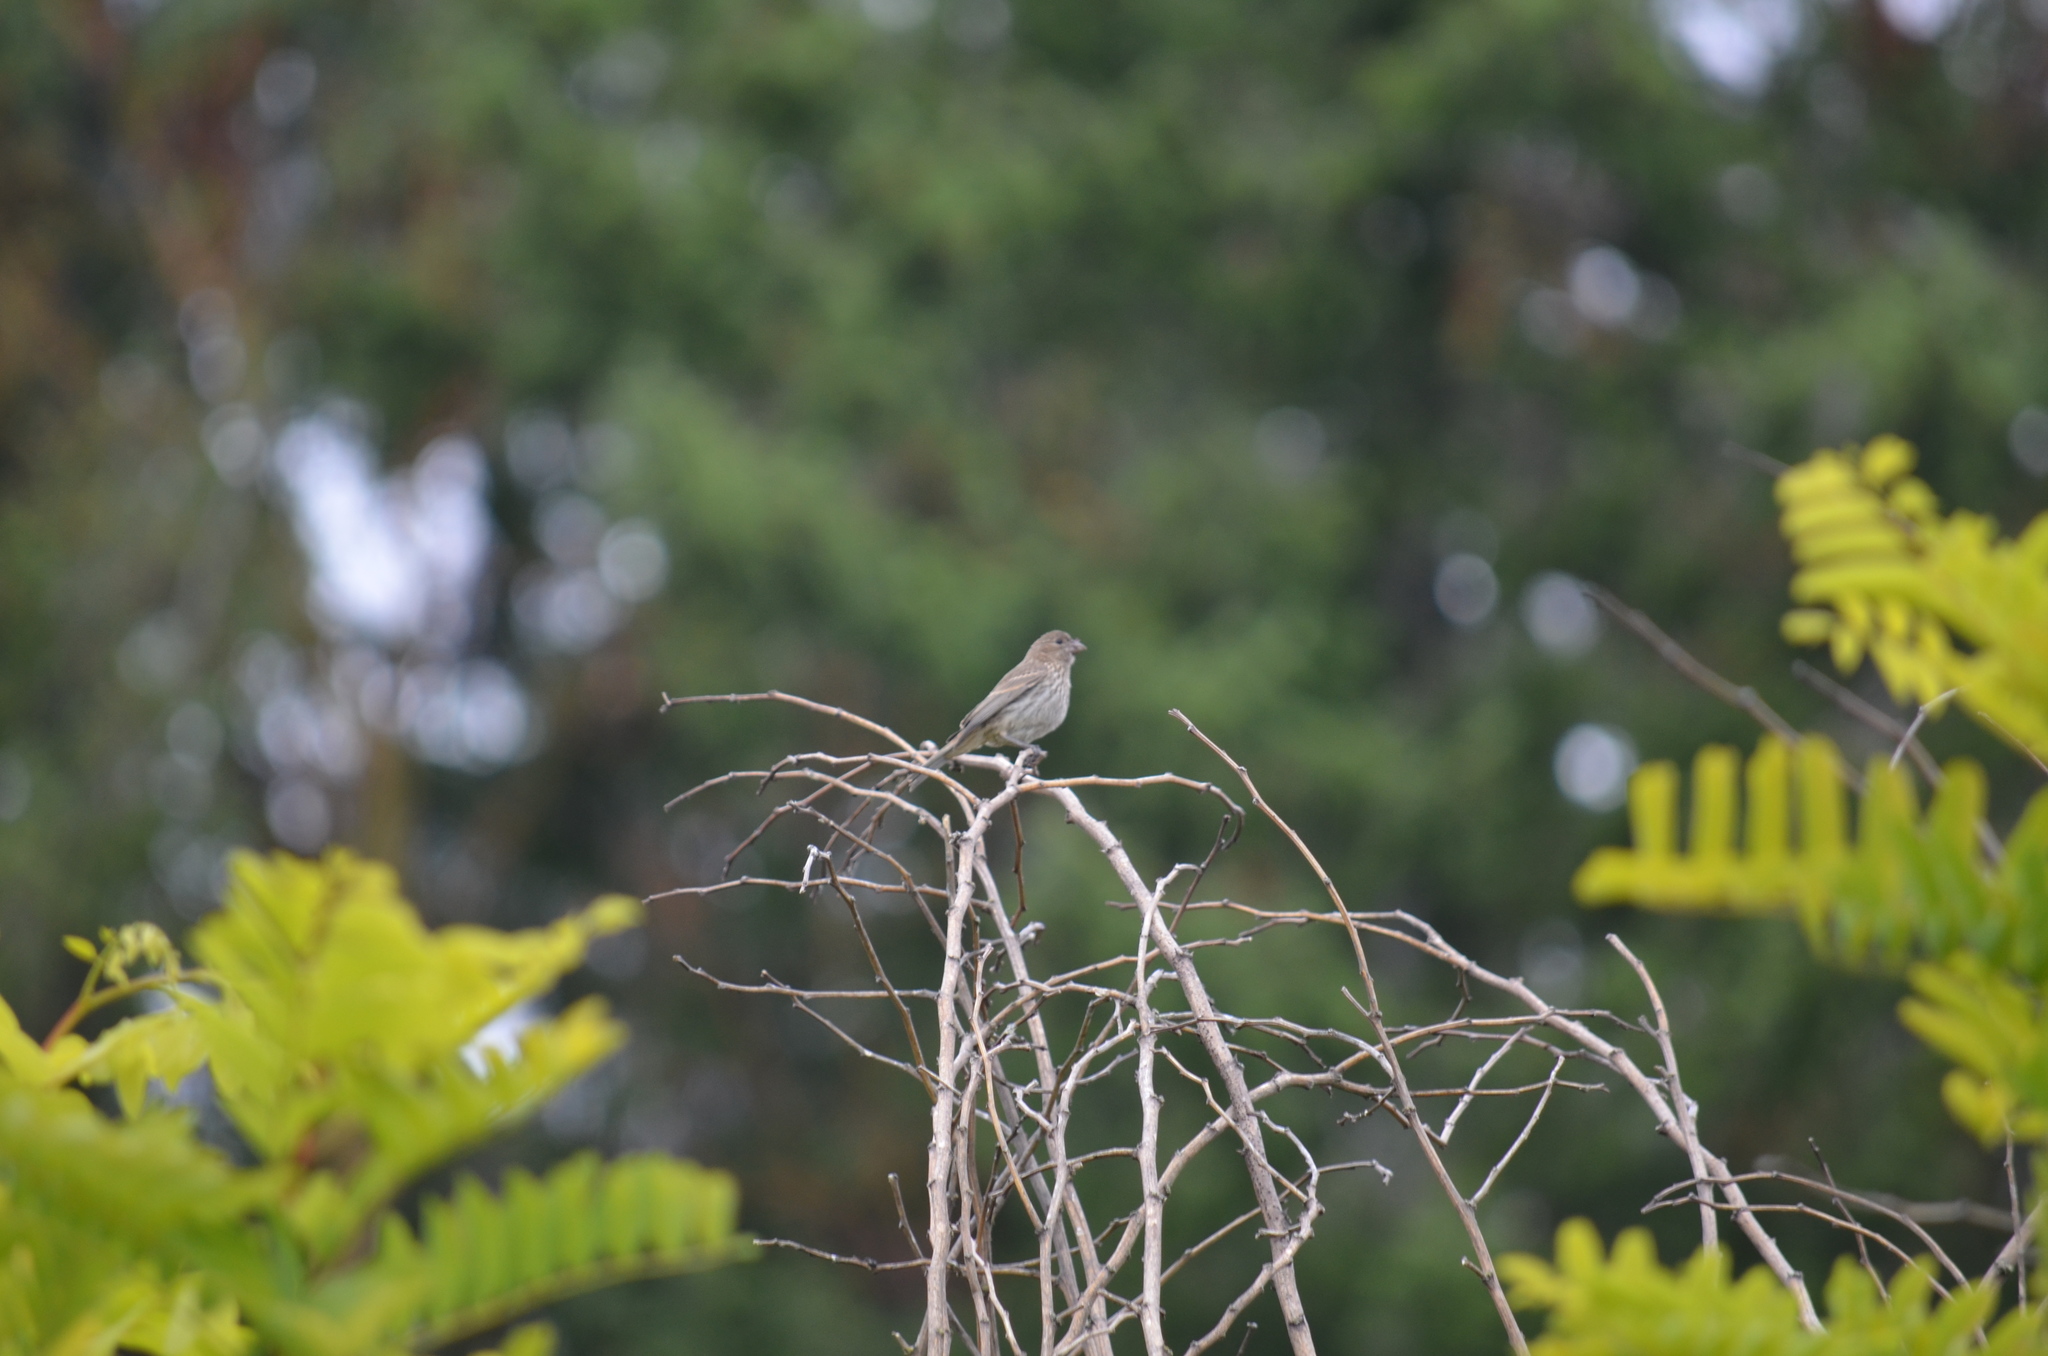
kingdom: Animalia
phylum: Chordata
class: Aves
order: Passeriformes
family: Fringillidae
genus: Haemorhous
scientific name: Haemorhous mexicanus
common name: House finch
